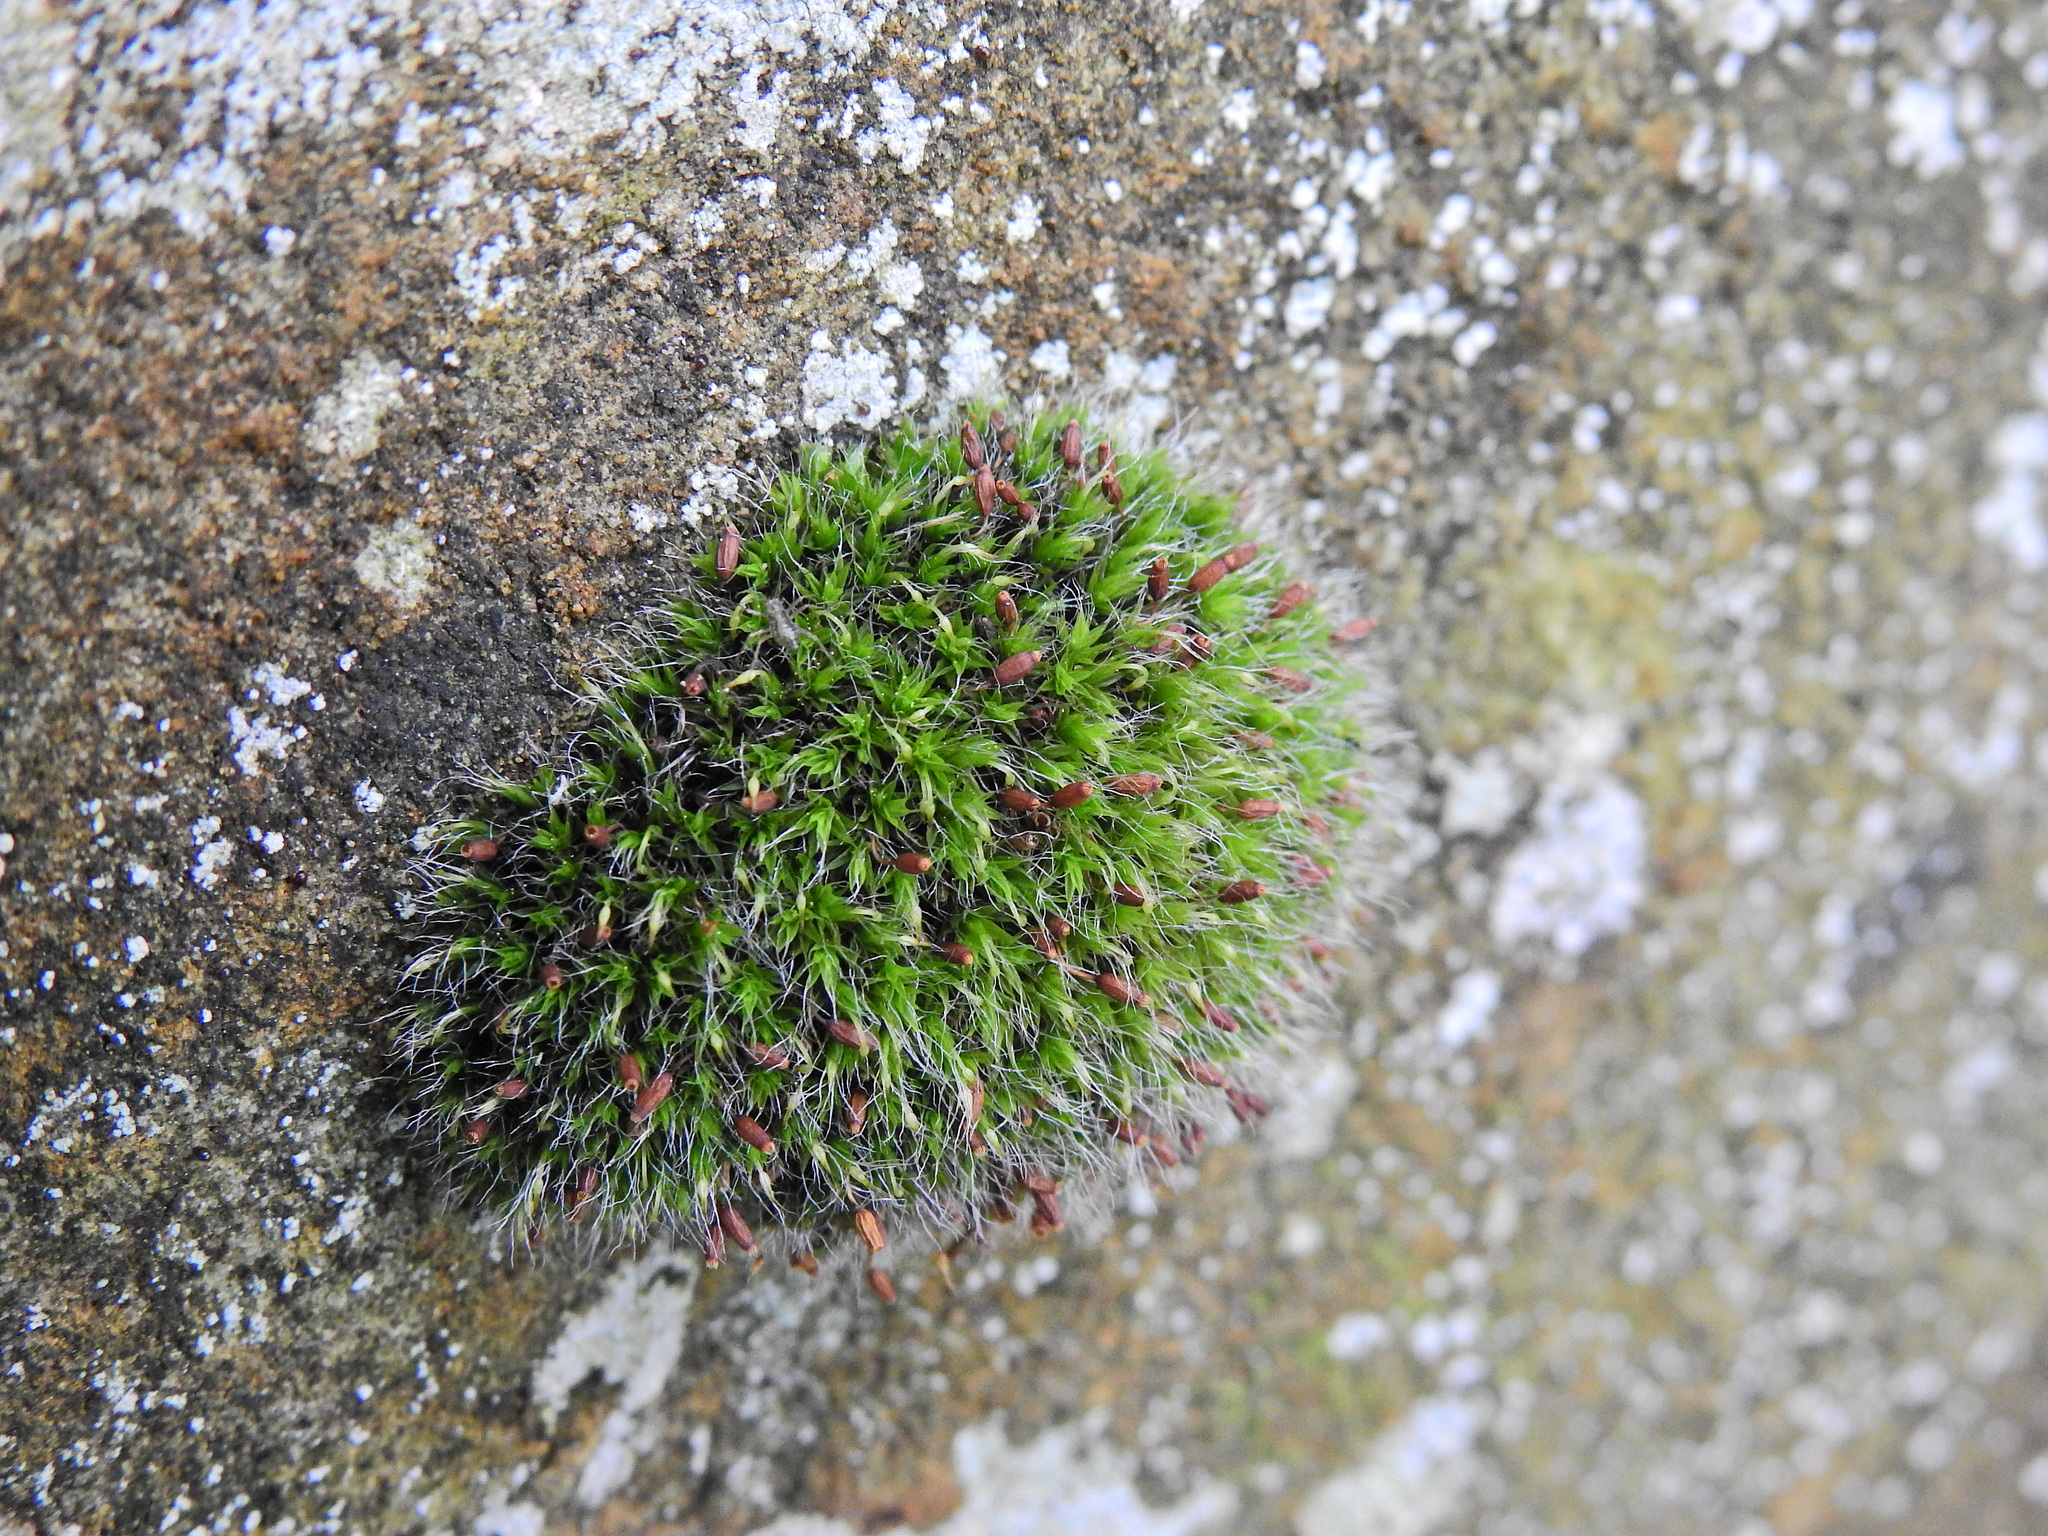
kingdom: Plantae
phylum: Bryophyta
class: Bryopsida
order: Grimmiales
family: Grimmiaceae
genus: Grimmia
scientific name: Grimmia pulvinata
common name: Grey-cushioned grimmia
